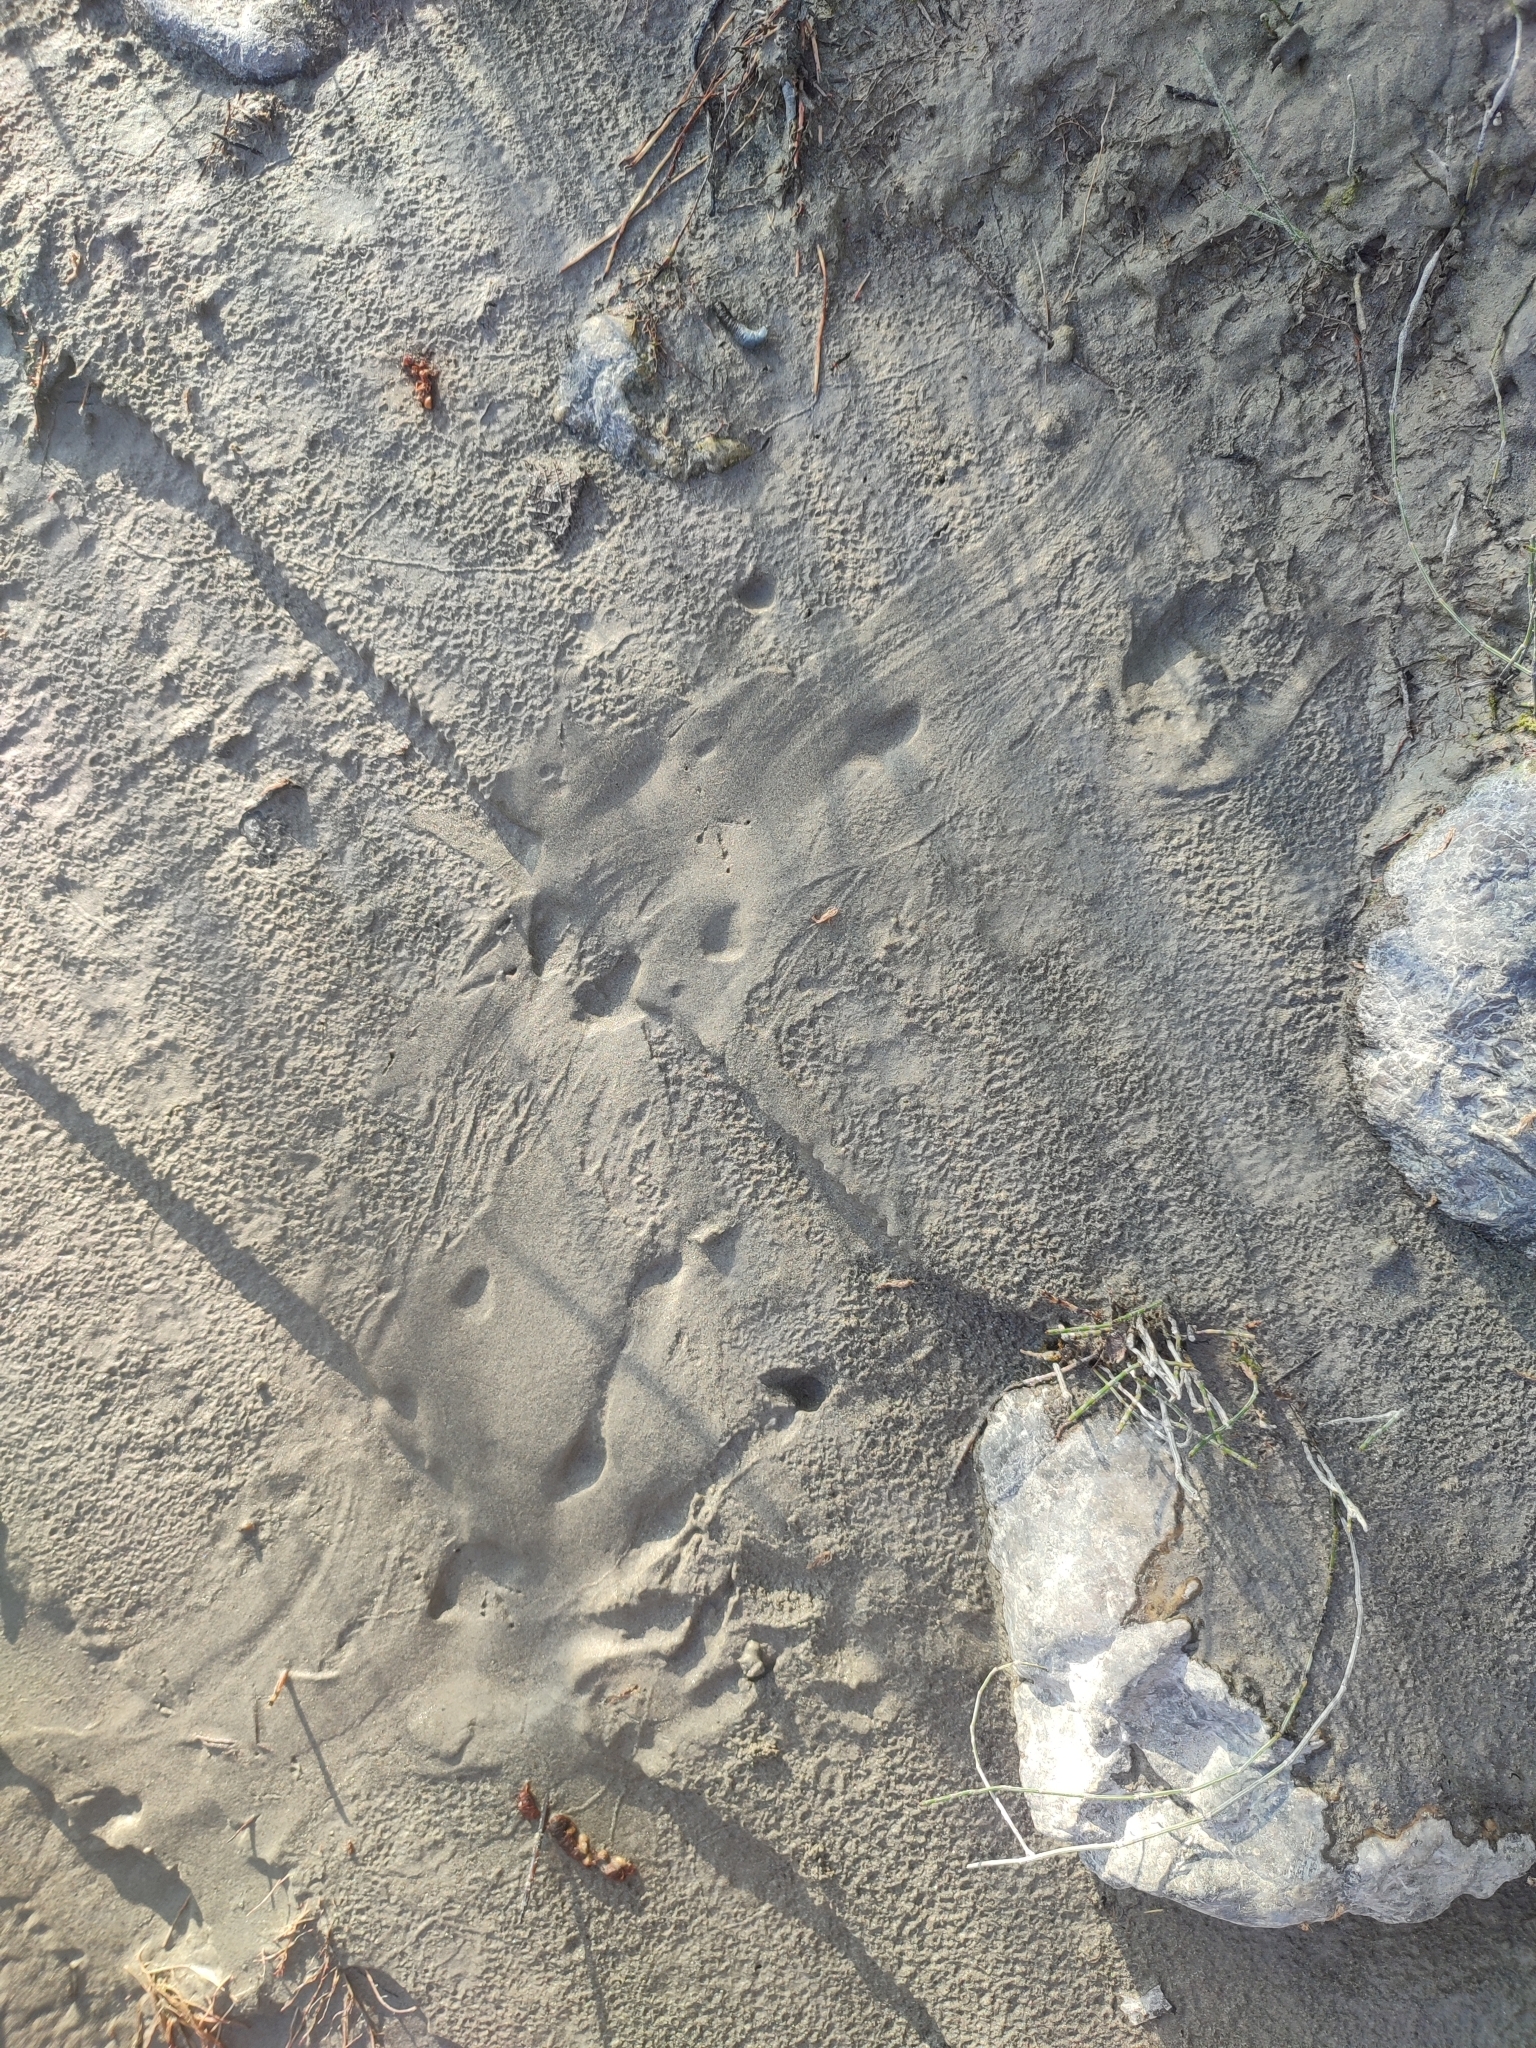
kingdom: Animalia
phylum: Chordata
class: Mammalia
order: Rodentia
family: Castoridae
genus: Castor
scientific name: Castor fiber
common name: Eurasian beaver
